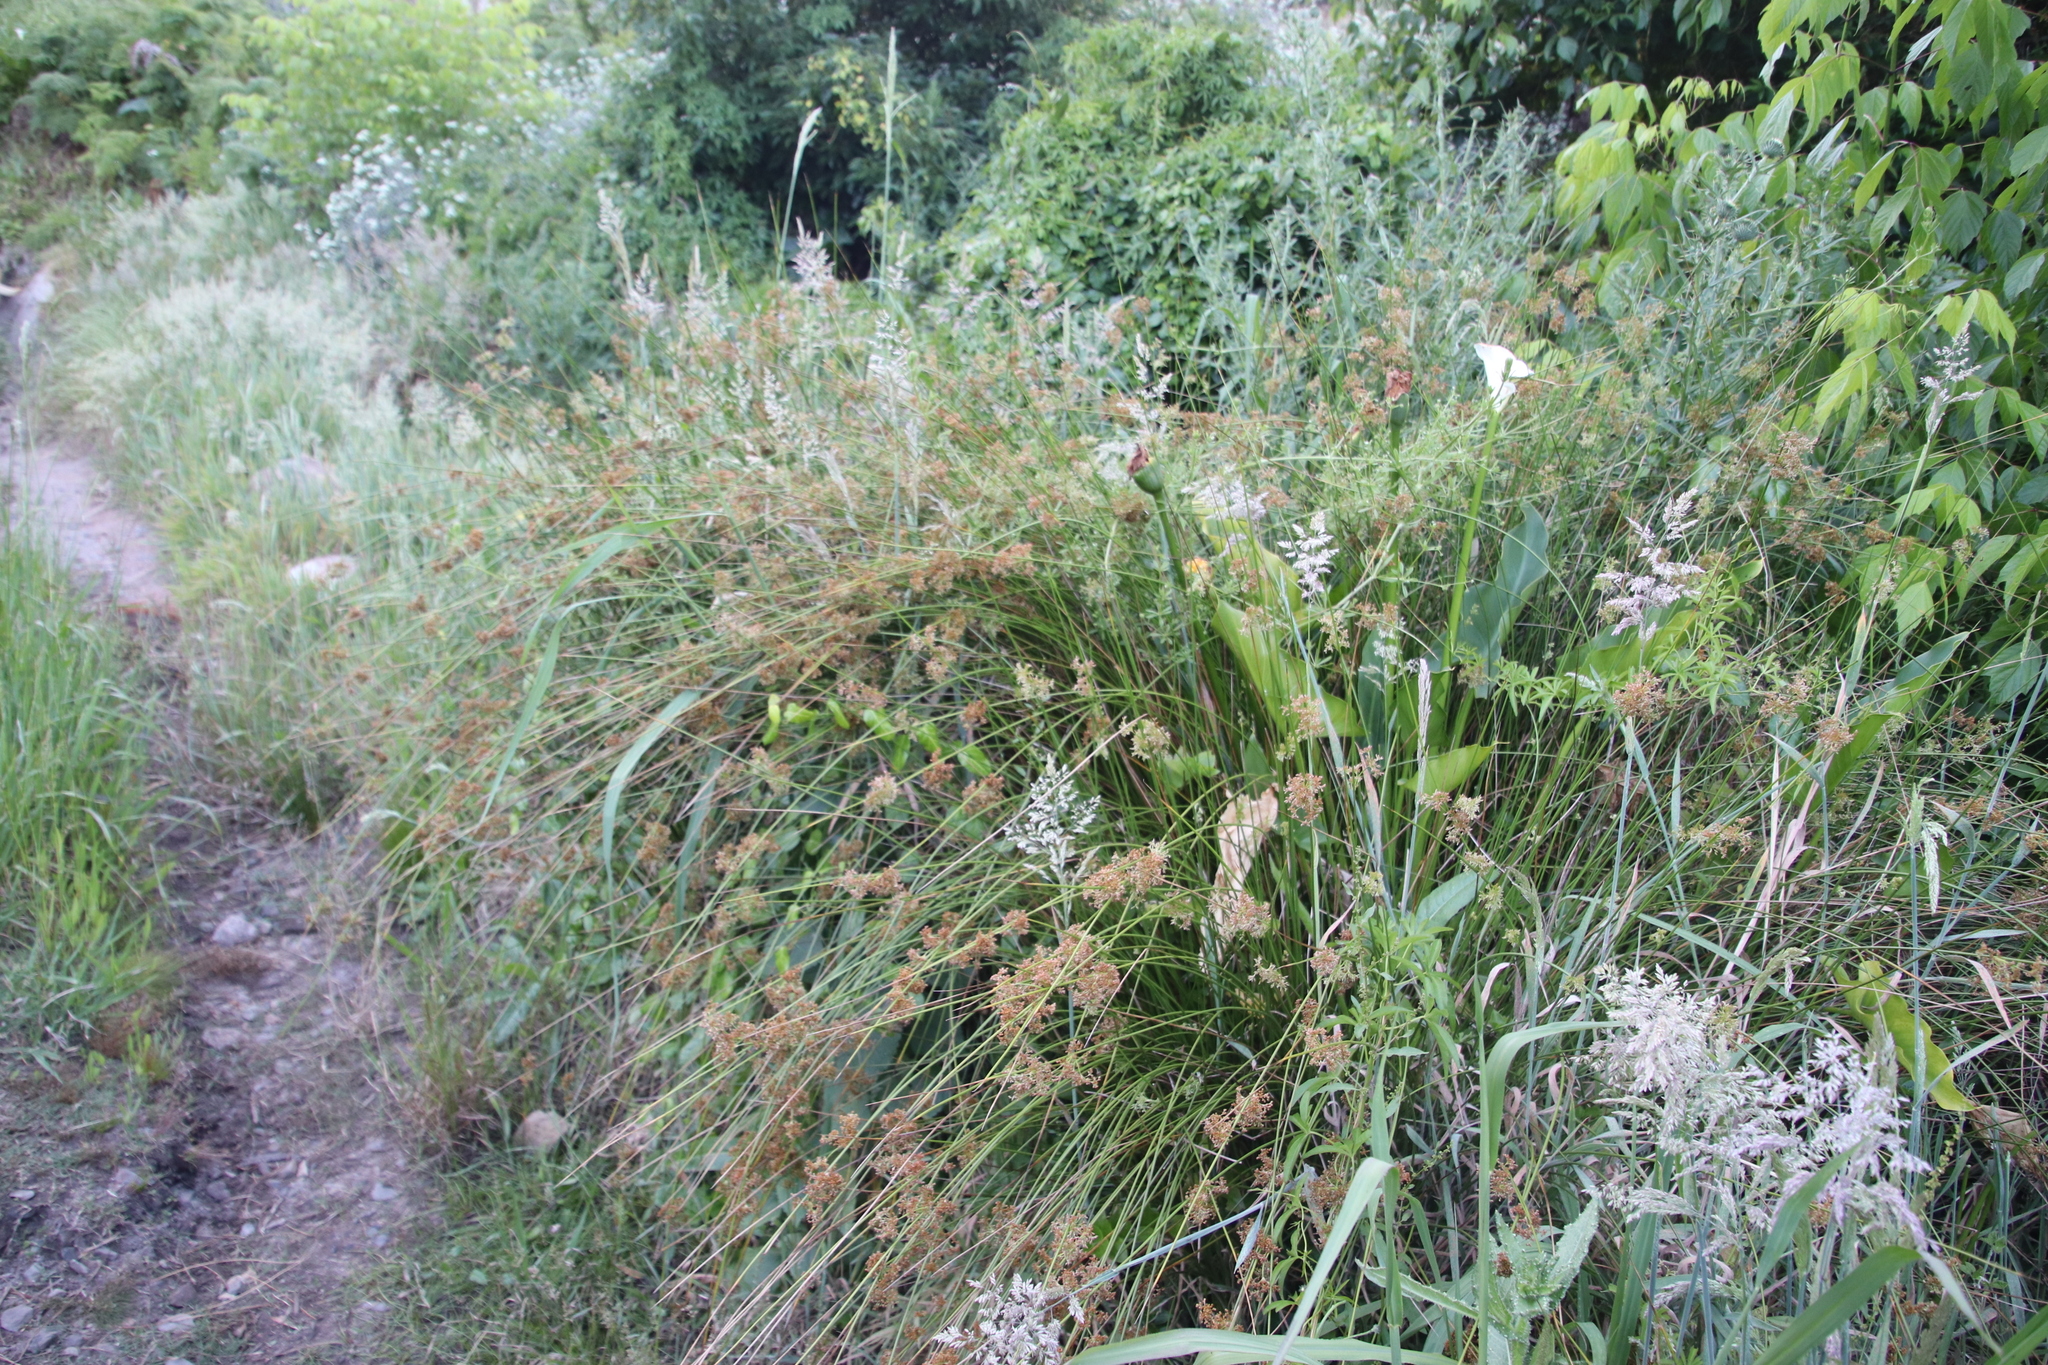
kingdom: Plantae
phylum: Tracheophyta
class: Liliopsida
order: Poales
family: Juncaceae
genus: Juncus
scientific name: Juncus effusus
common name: Soft rush
